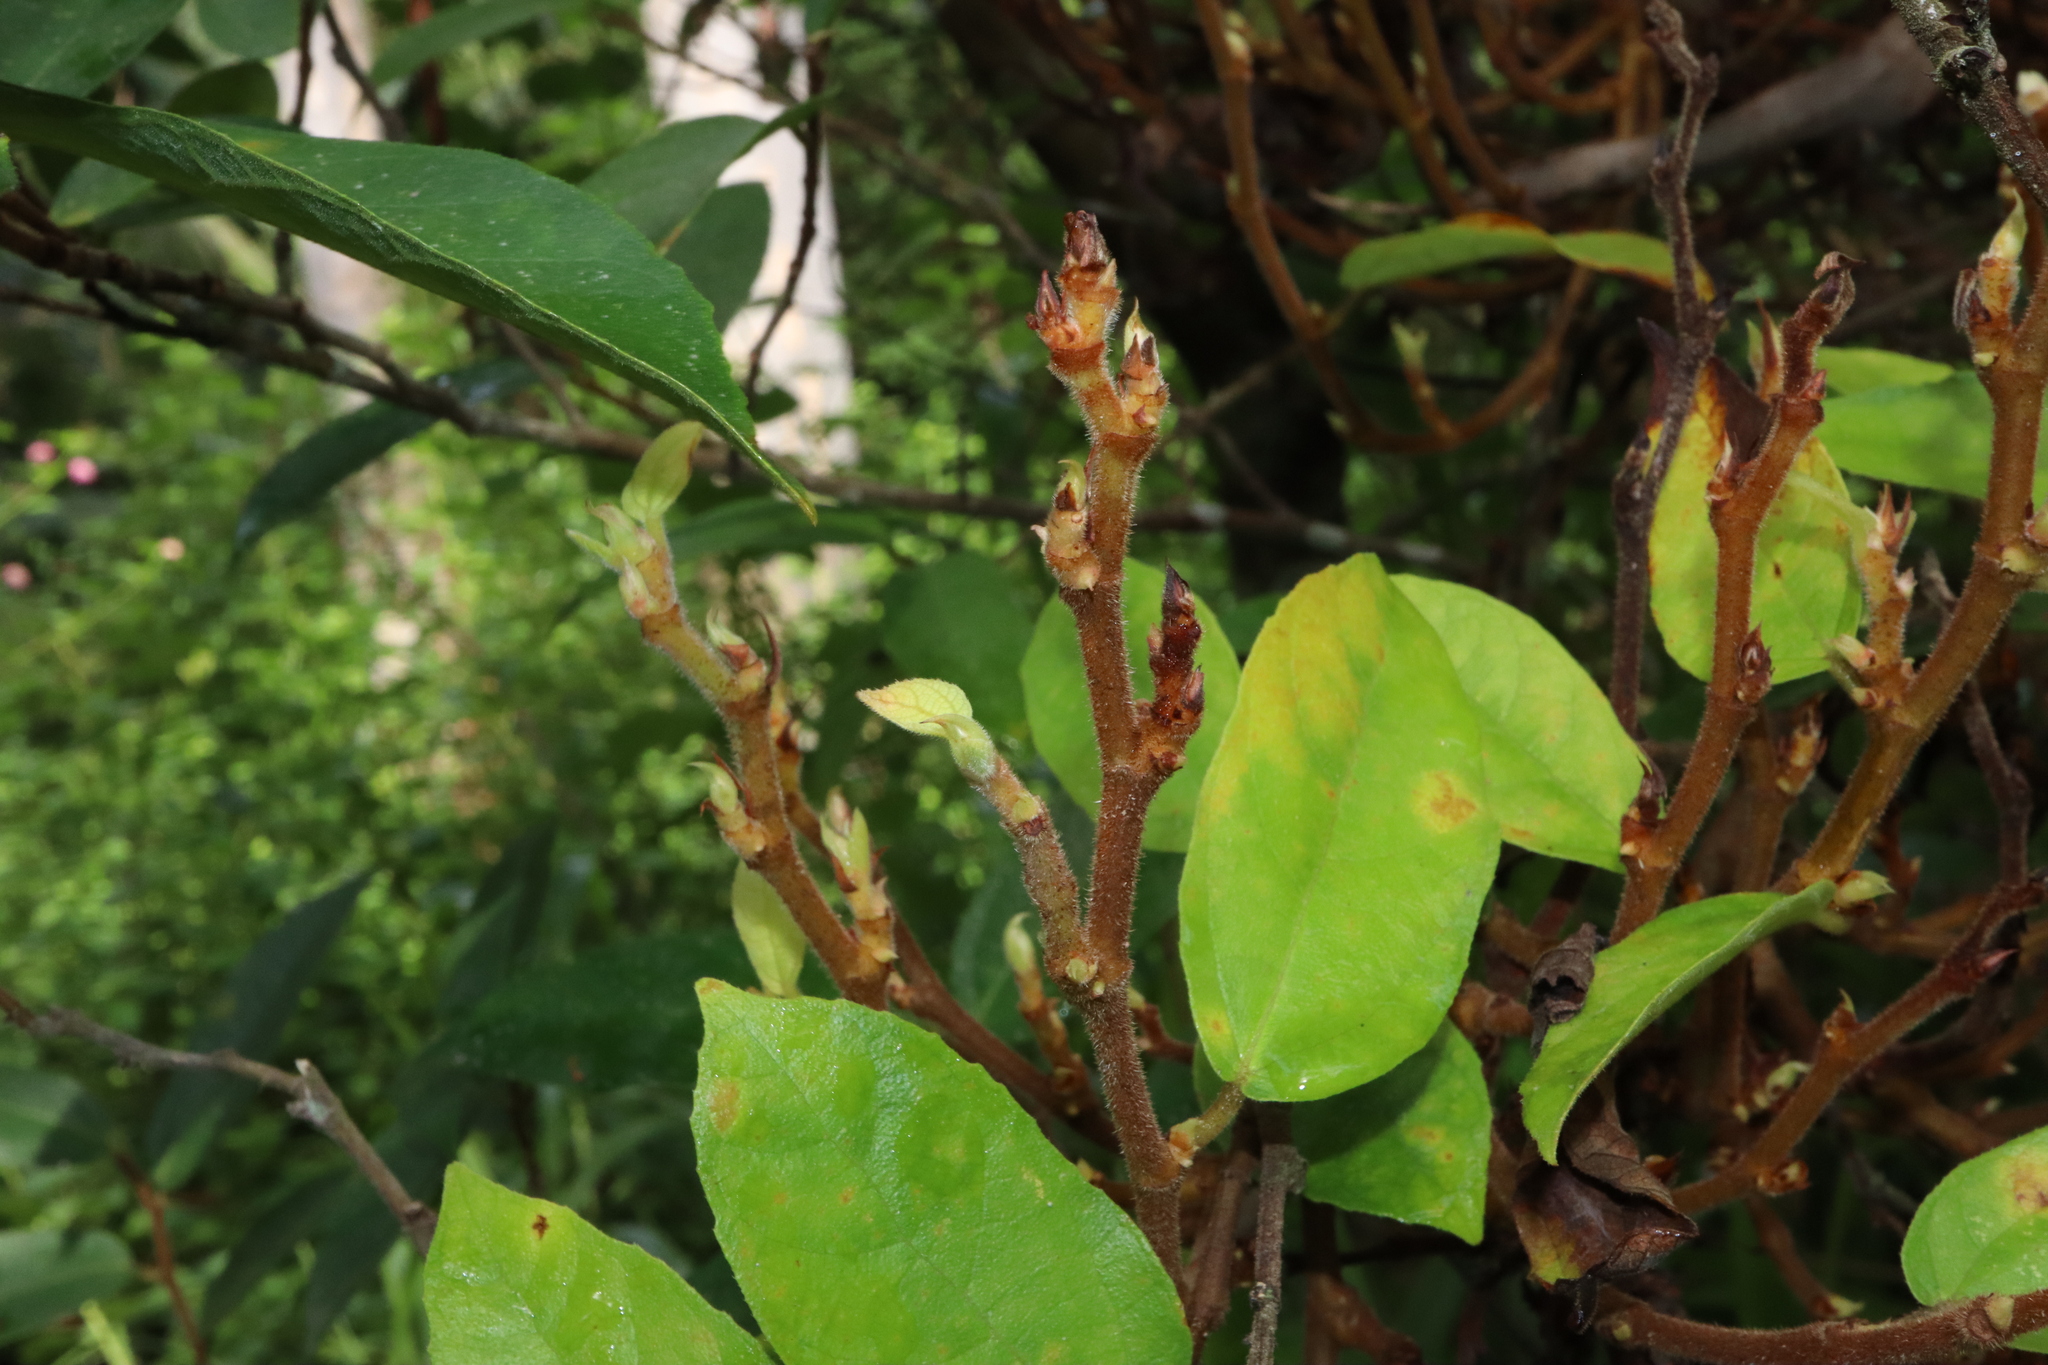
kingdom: Plantae
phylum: Tracheophyta
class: Magnoliopsida
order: Rosales
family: Moraceae
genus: Ficus
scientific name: Ficus coronata
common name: Creek sandpaper fig
